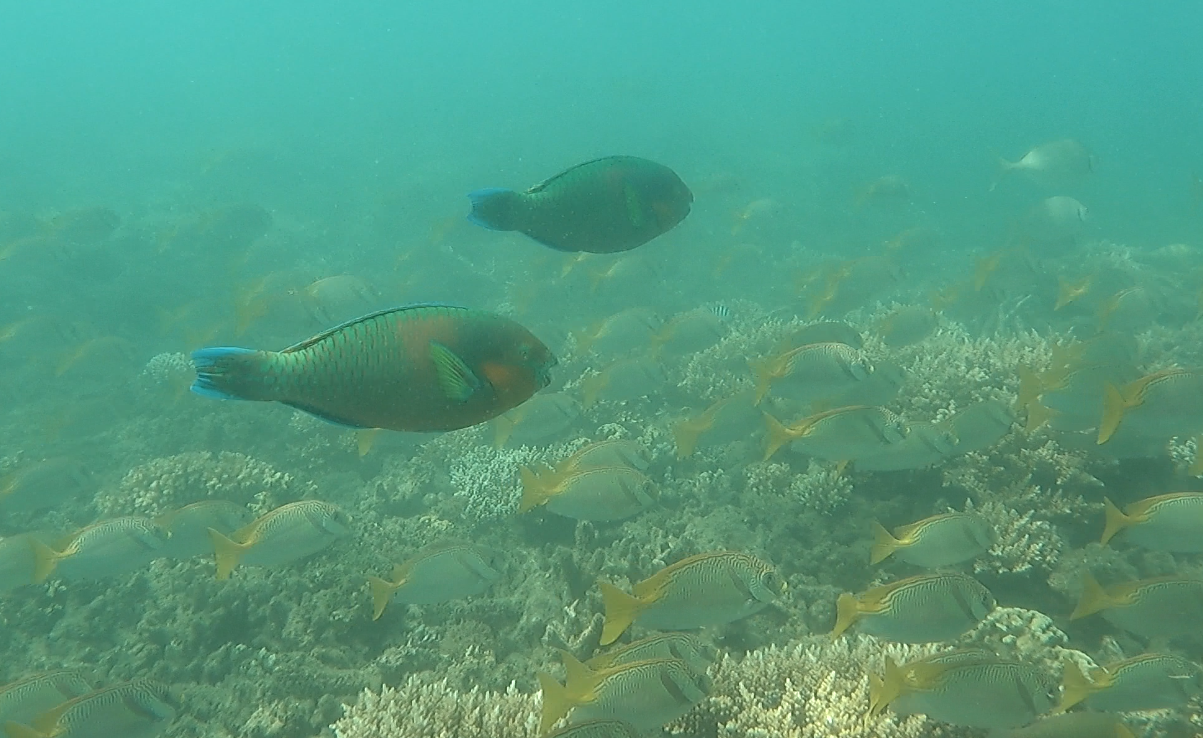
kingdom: Animalia
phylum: Chordata
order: Perciformes
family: Siganidae
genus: Siganus
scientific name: Siganus doliatus
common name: Barred spinefoot
